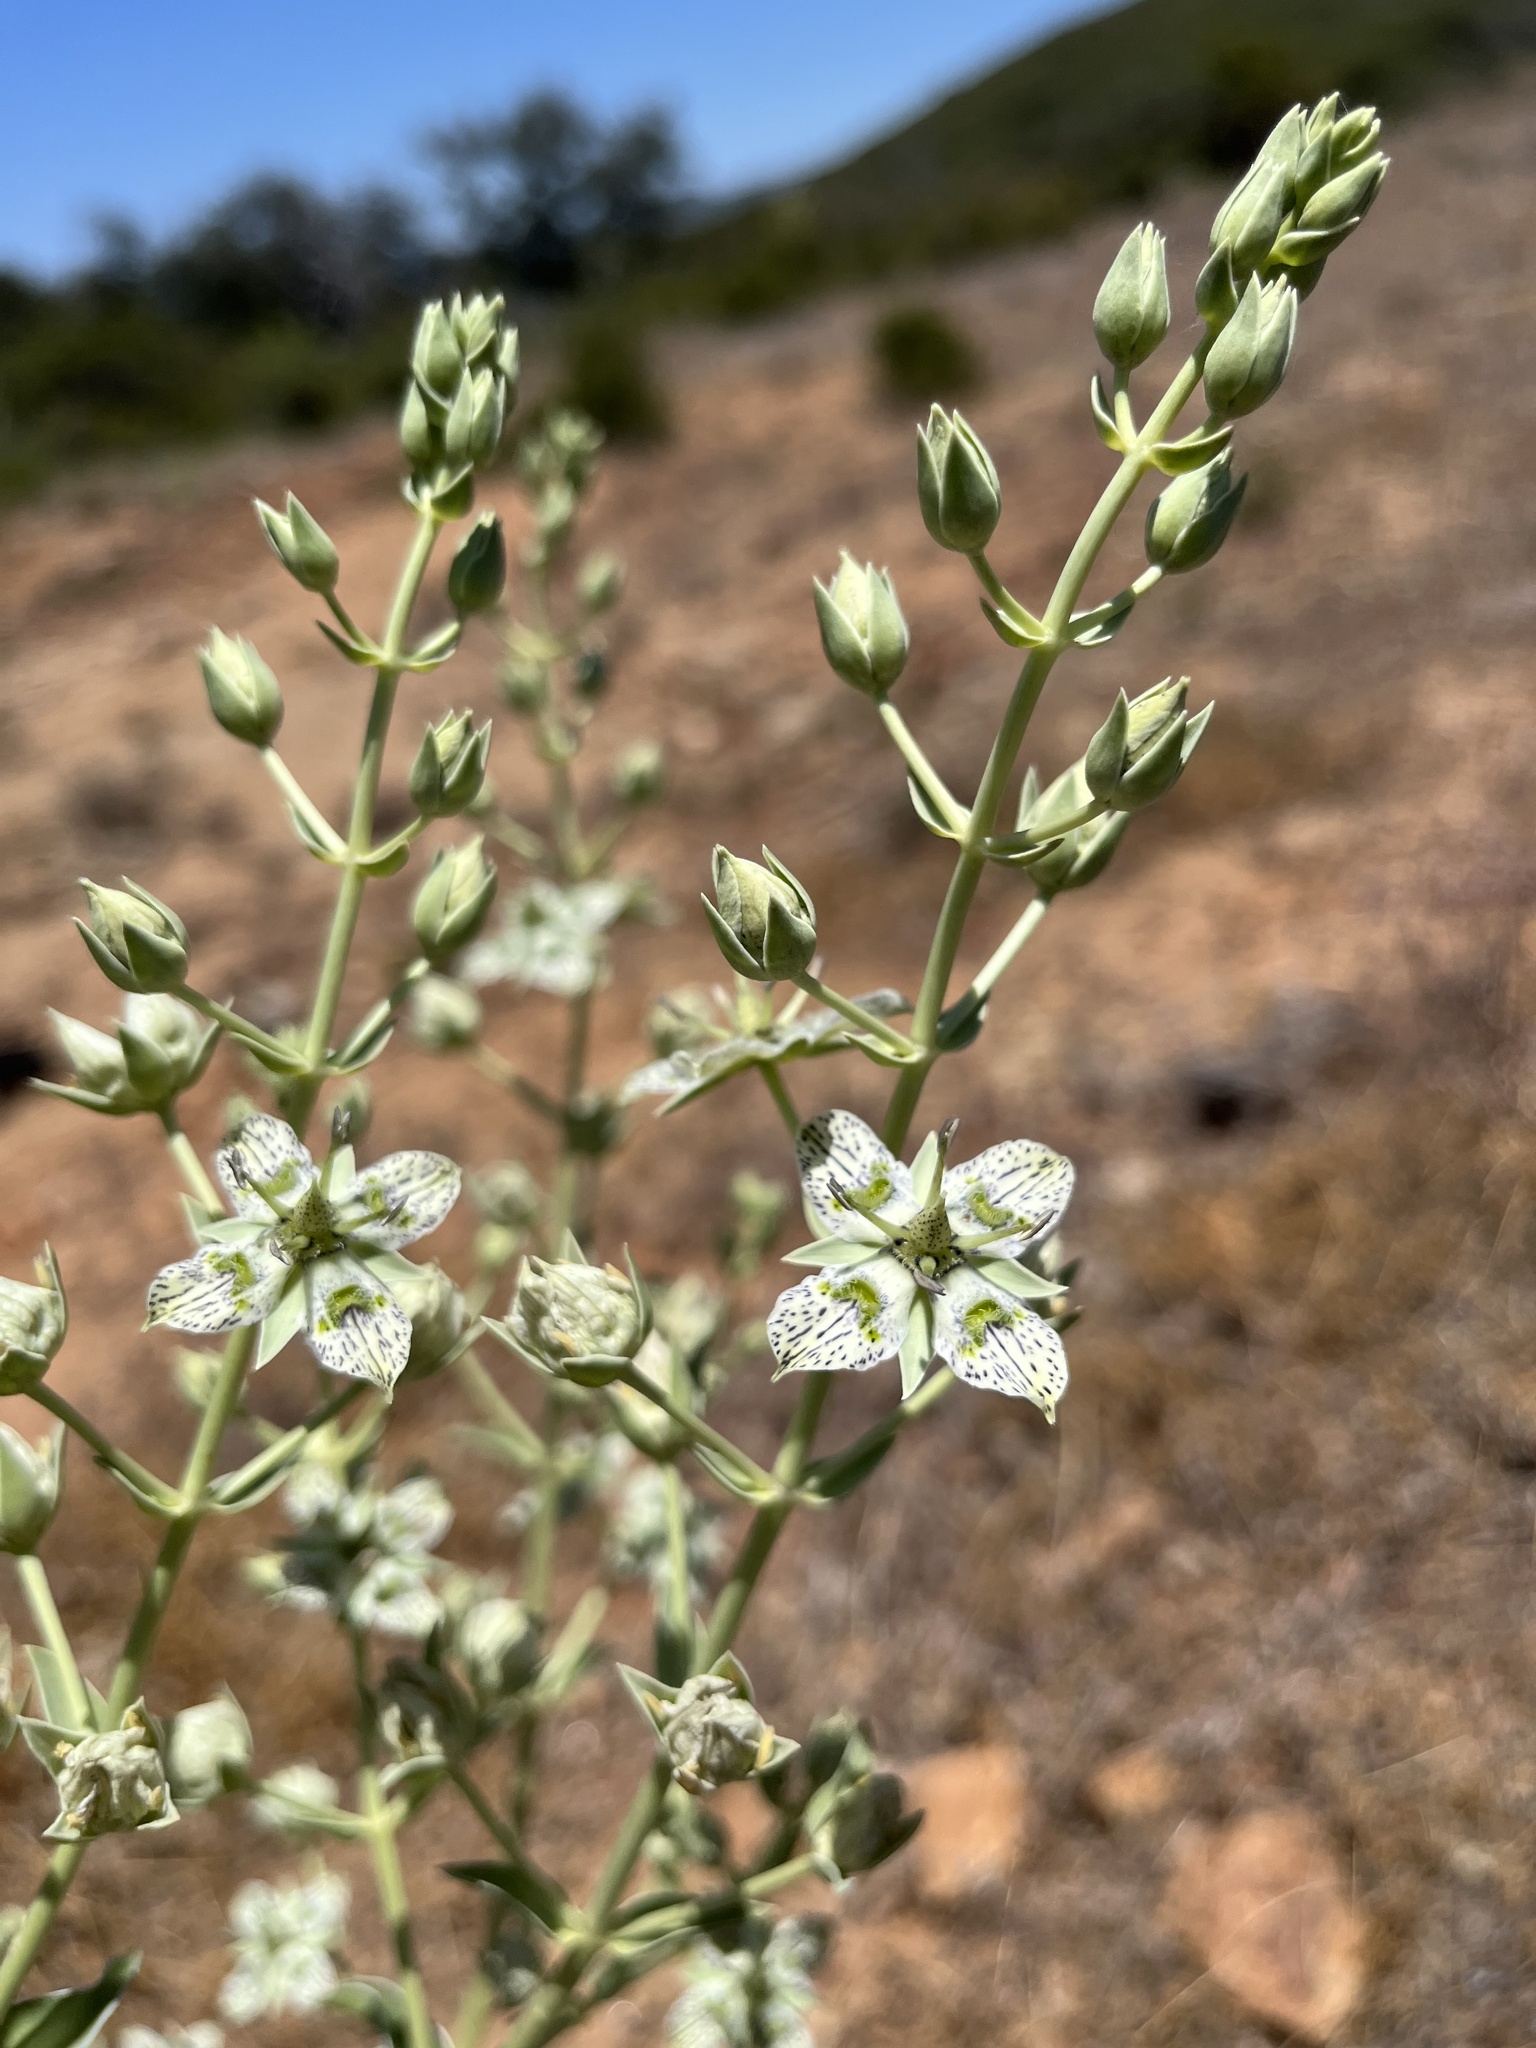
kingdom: Plantae
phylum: Tracheophyta
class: Magnoliopsida
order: Gentianales
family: Gentianaceae
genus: Frasera
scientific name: Frasera parryi
